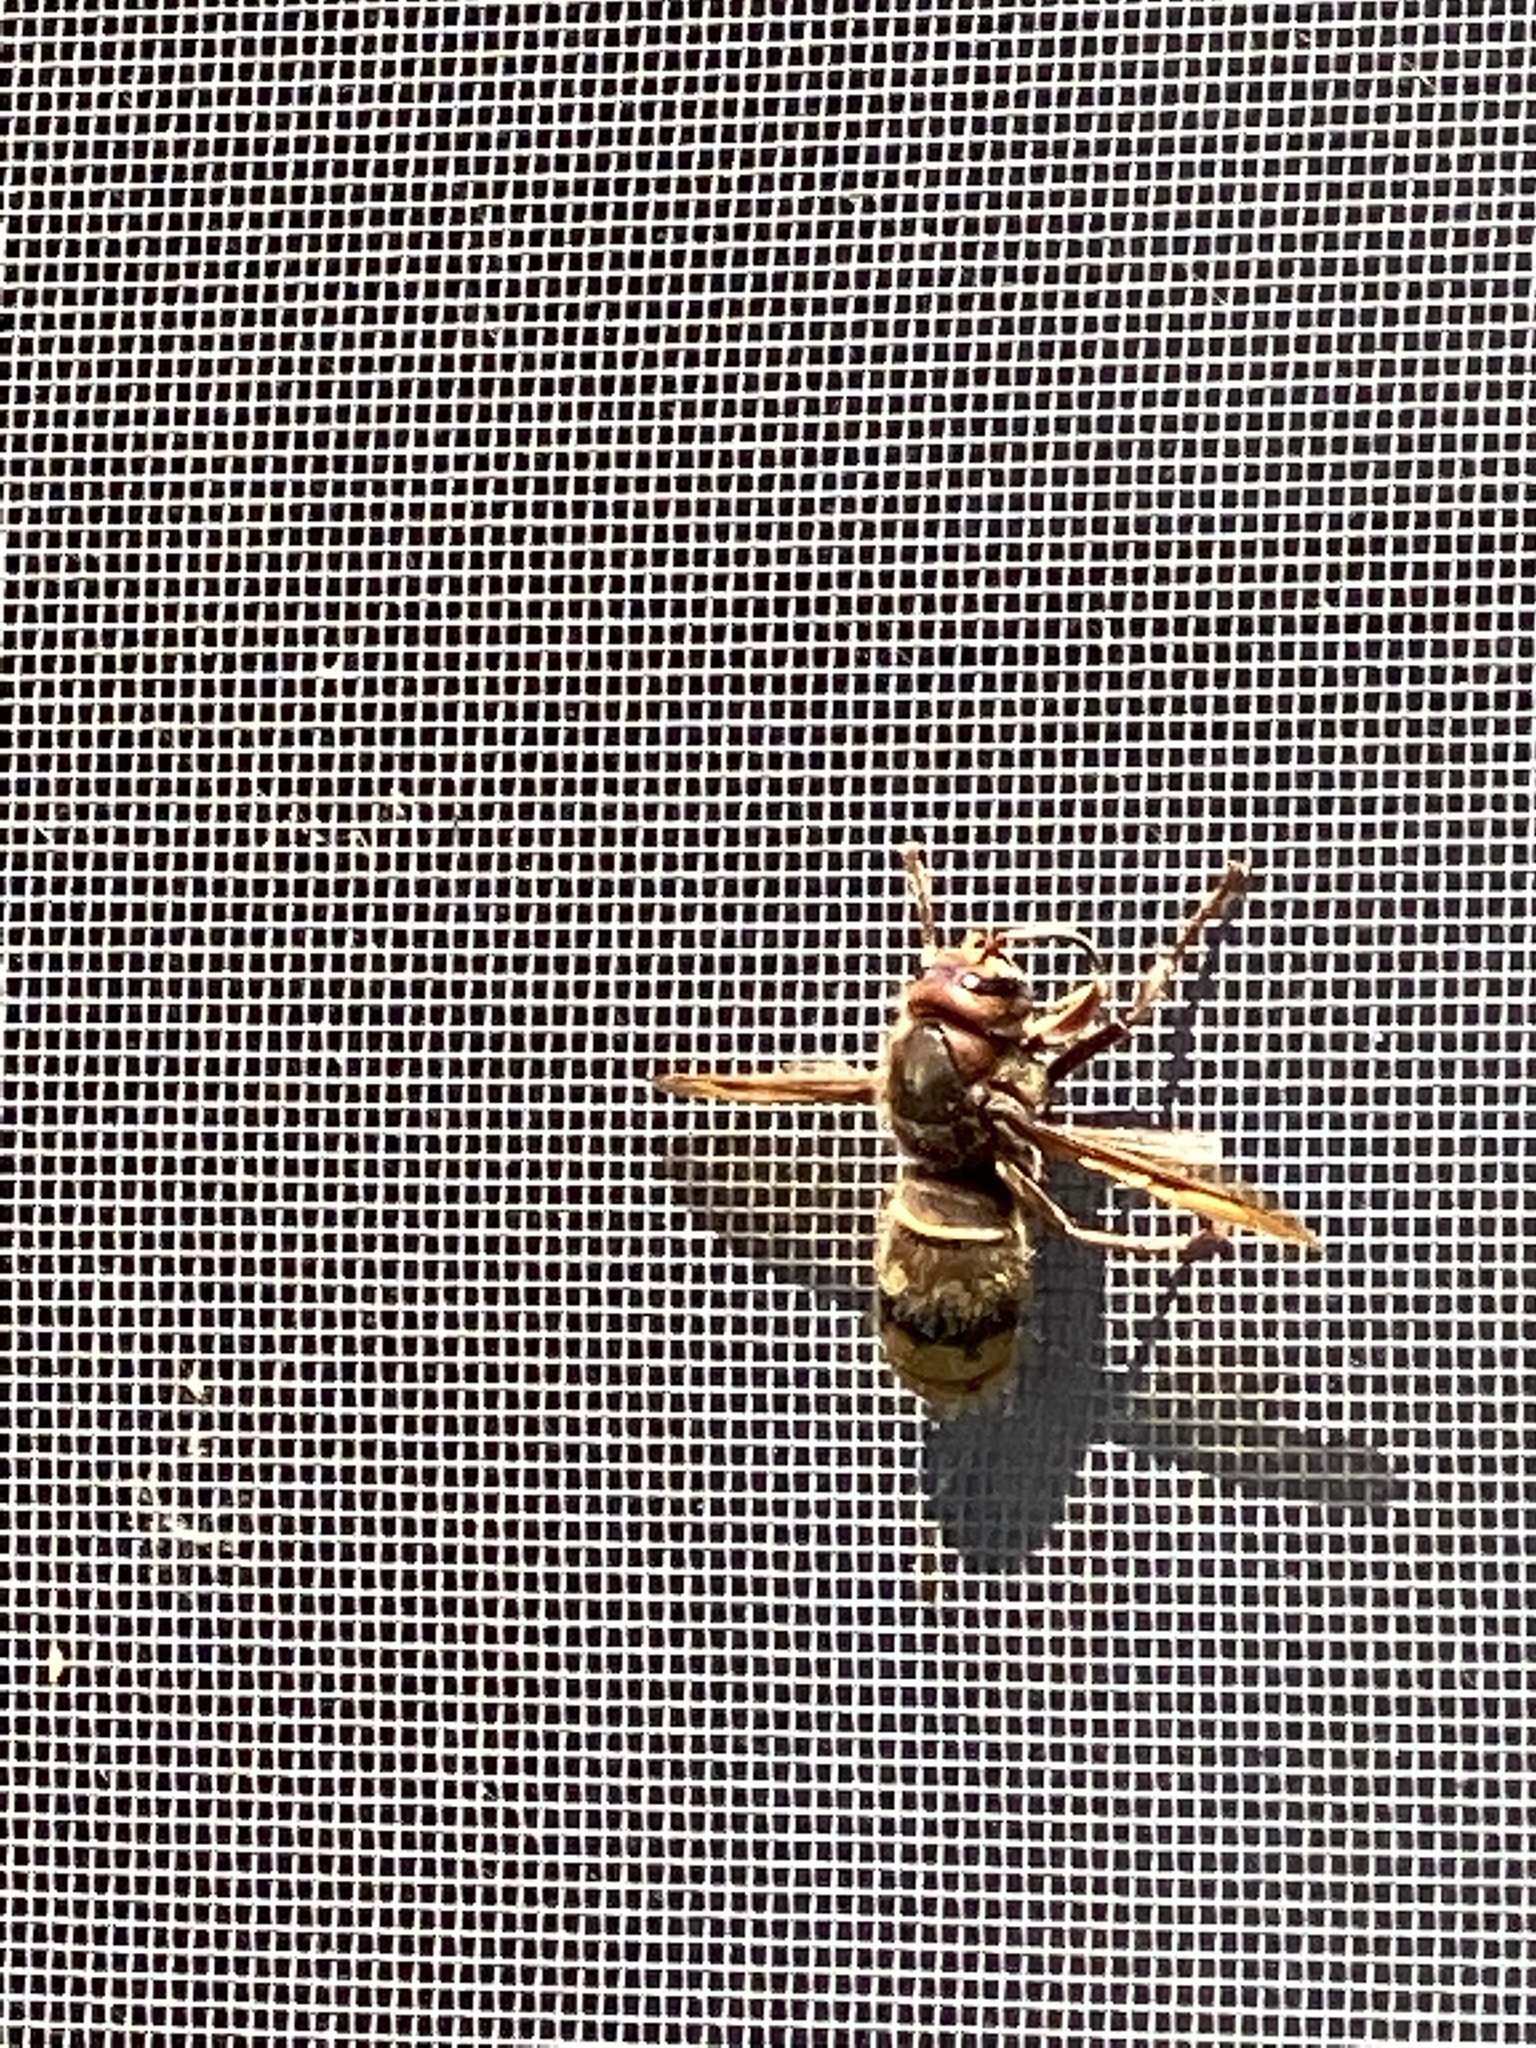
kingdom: Animalia
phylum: Arthropoda
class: Insecta
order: Hymenoptera
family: Vespidae
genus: Vespa
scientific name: Vespa crabro
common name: Hornet
